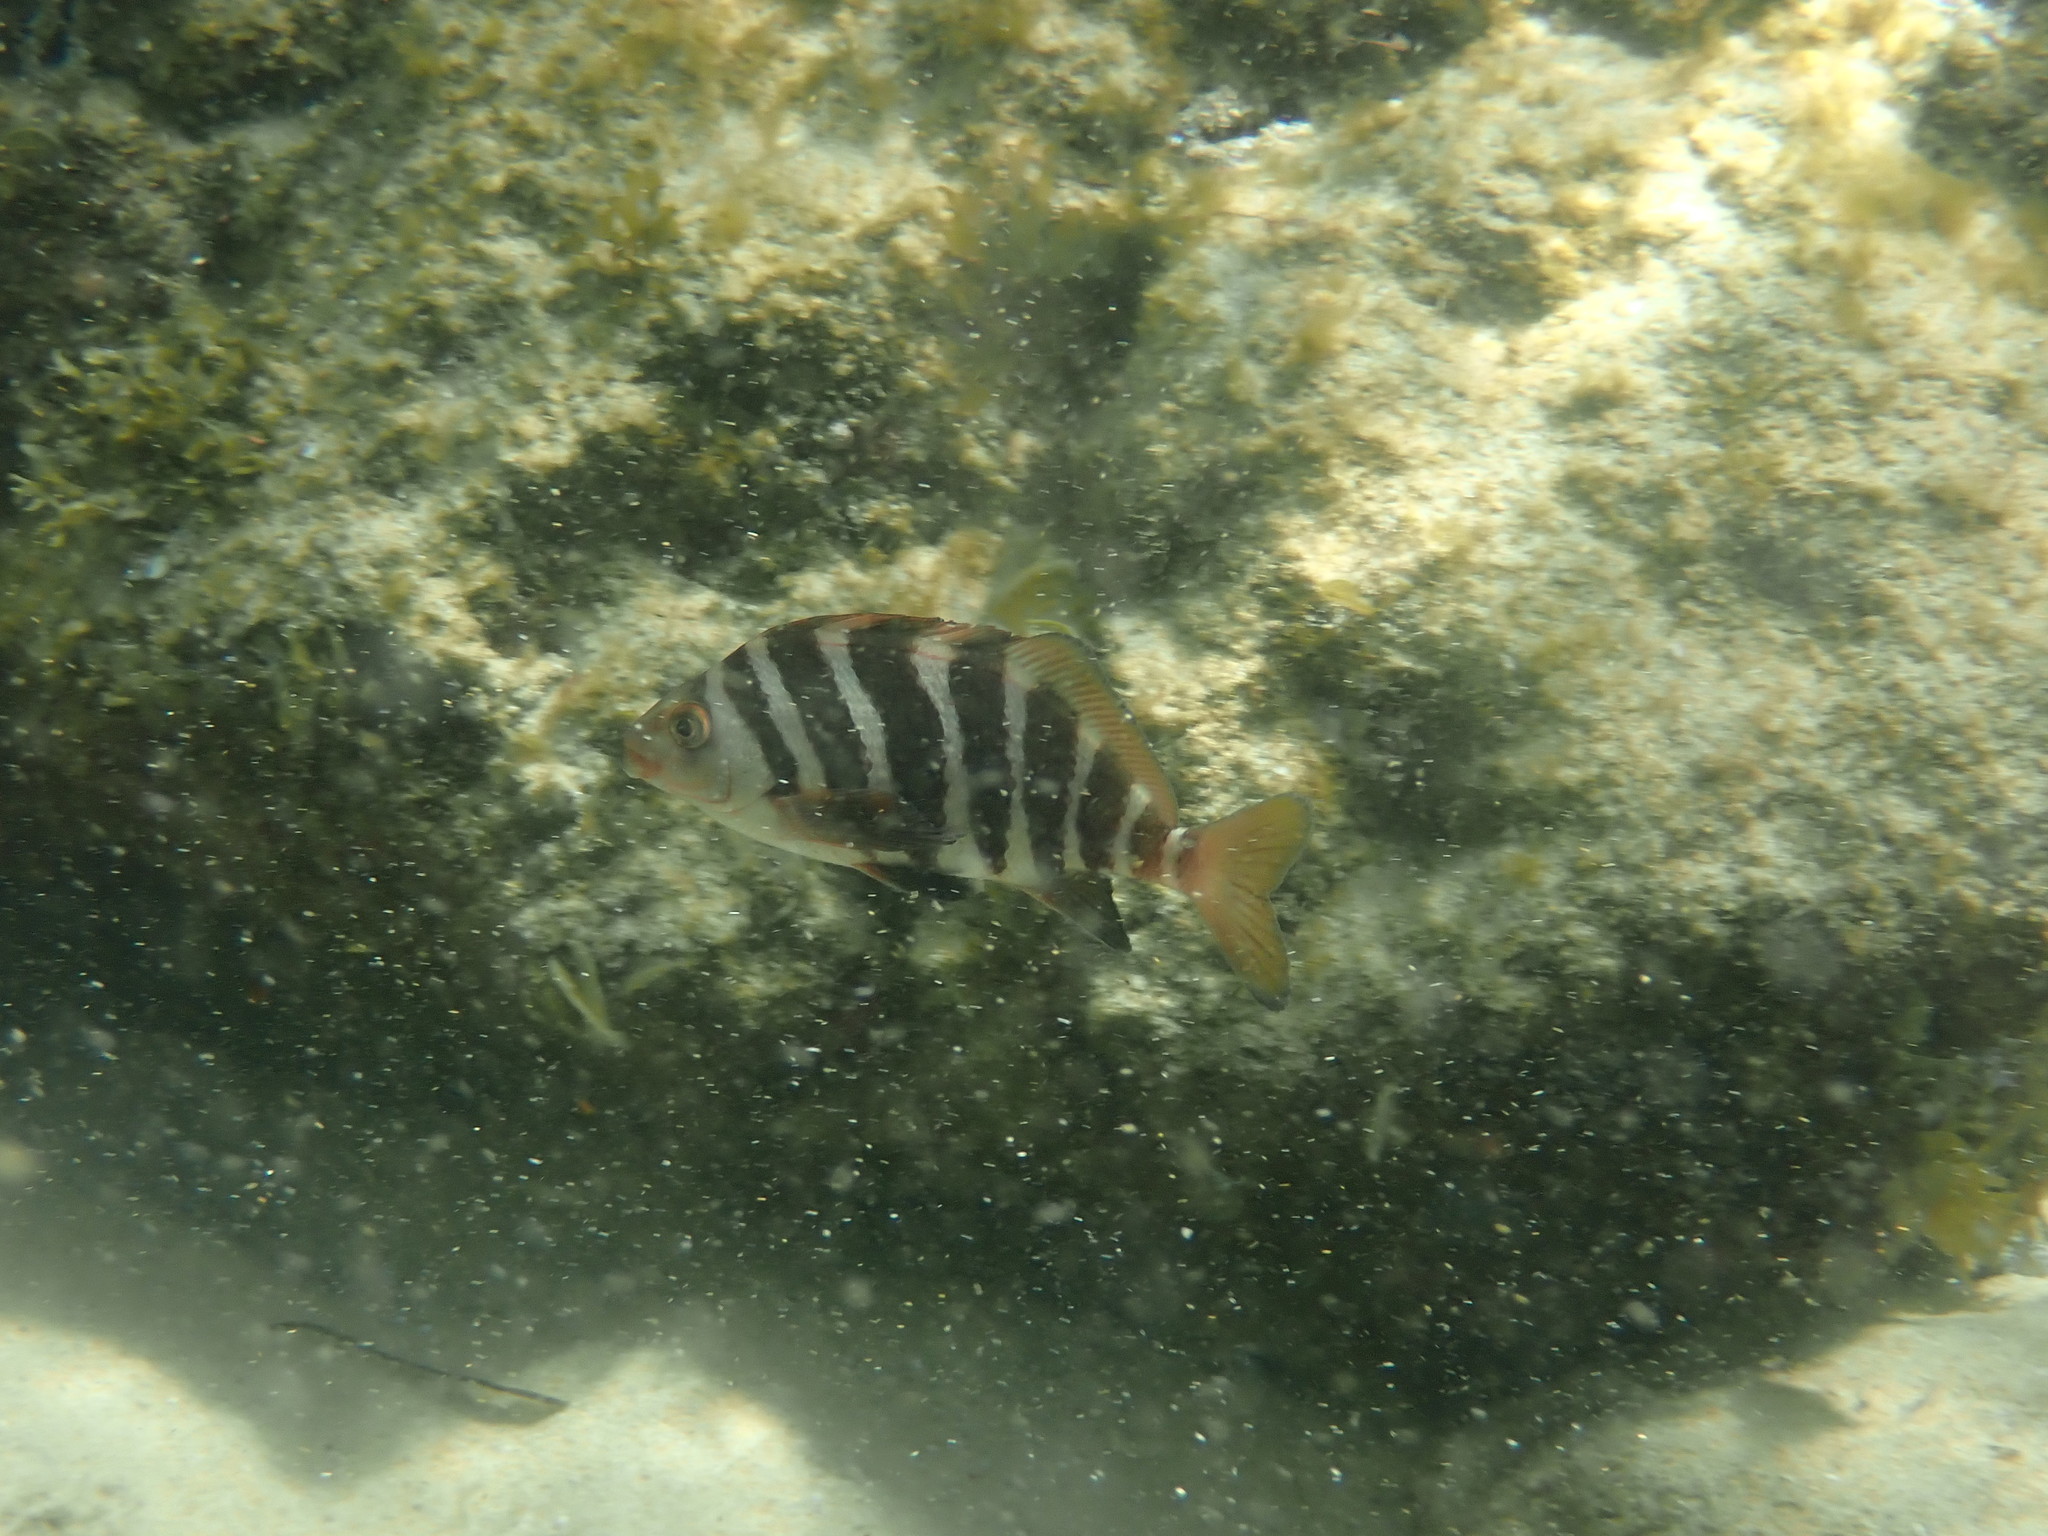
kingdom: Animalia
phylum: Chordata
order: Perciformes
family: Cheilodactylidae
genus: Cheilodactylus
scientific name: Cheilodactylus spectabilis
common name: Red moki
